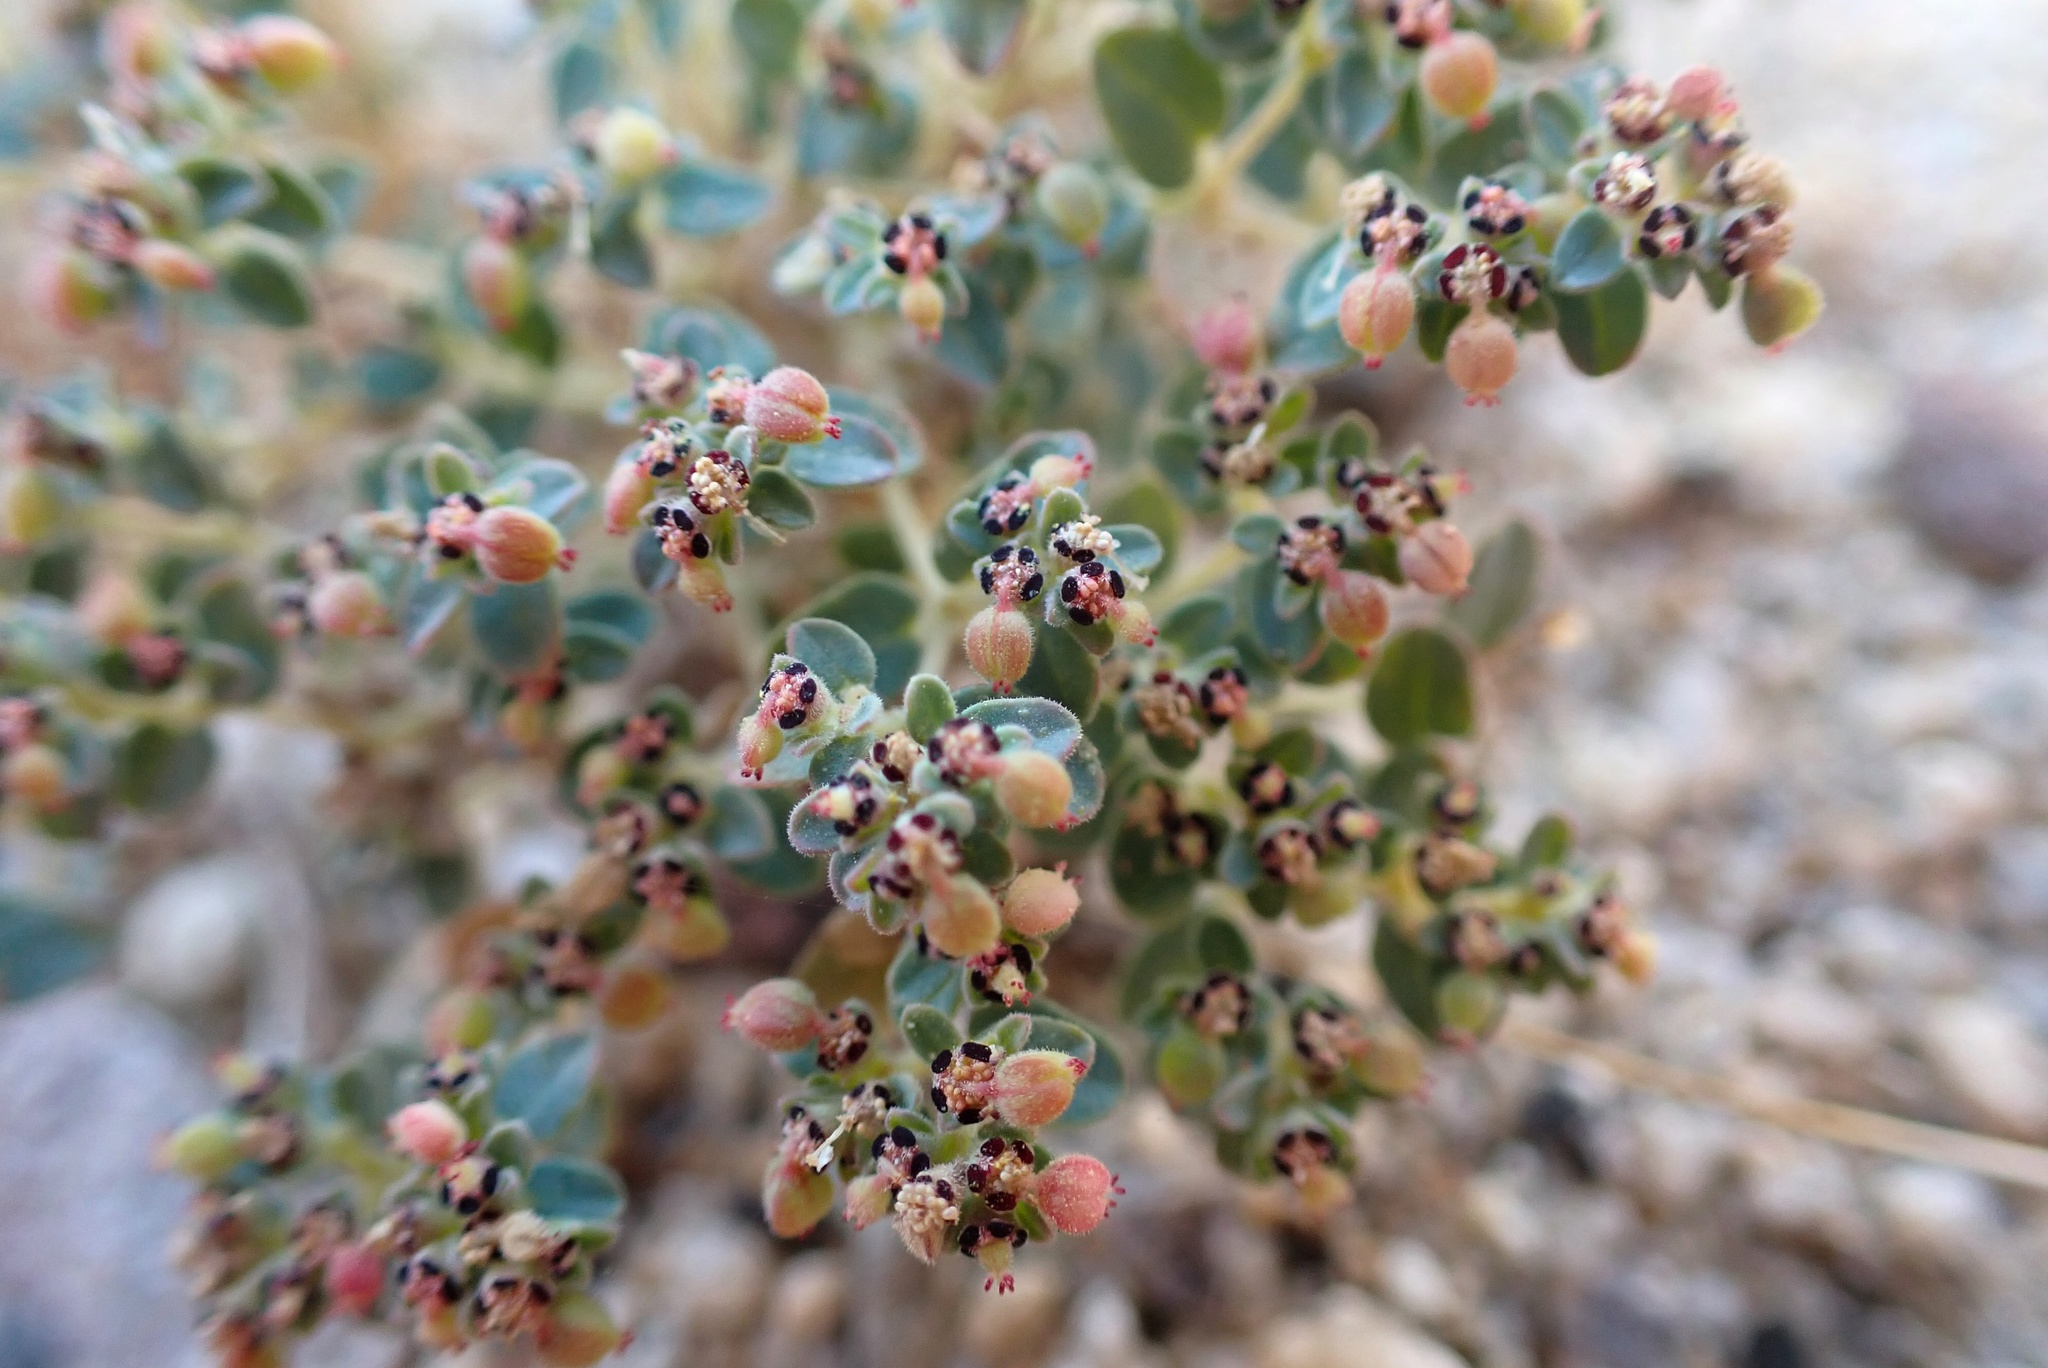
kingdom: Plantae
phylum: Tracheophyta
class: Magnoliopsida
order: Malpighiales
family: Euphorbiaceae
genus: Euphorbia
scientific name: Euphorbia polycarpa
